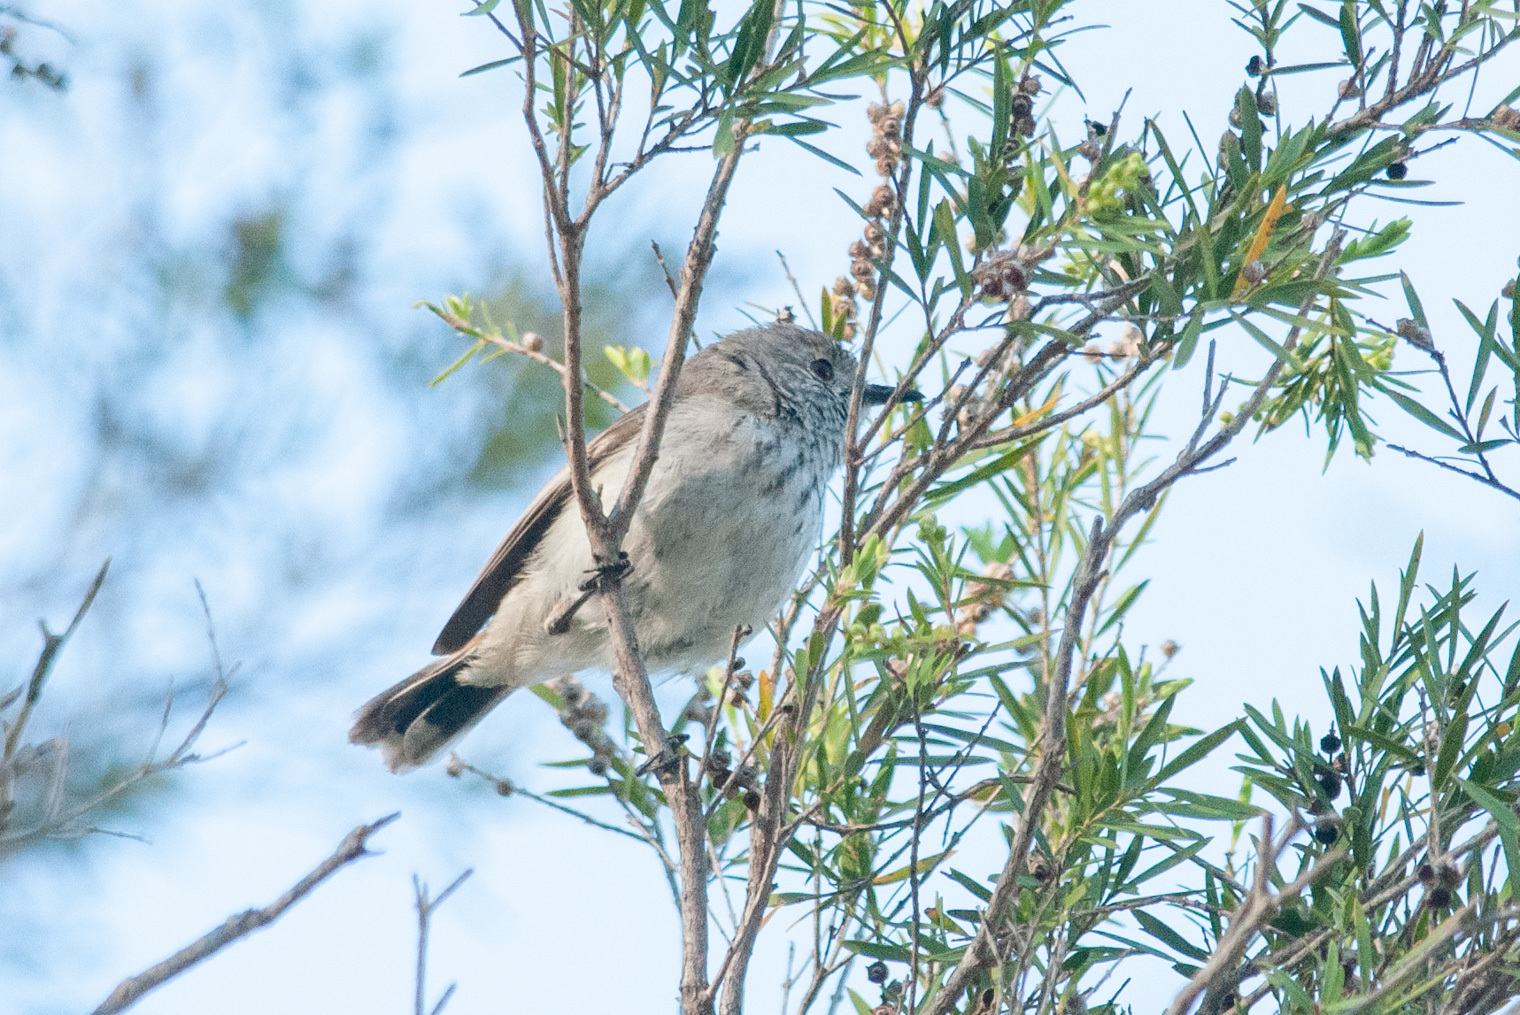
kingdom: Animalia
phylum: Chordata
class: Aves
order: Passeriformes
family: Acanthizidae
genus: Acanthiza
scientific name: Acanthiza apicalis
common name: Inland thornbill
